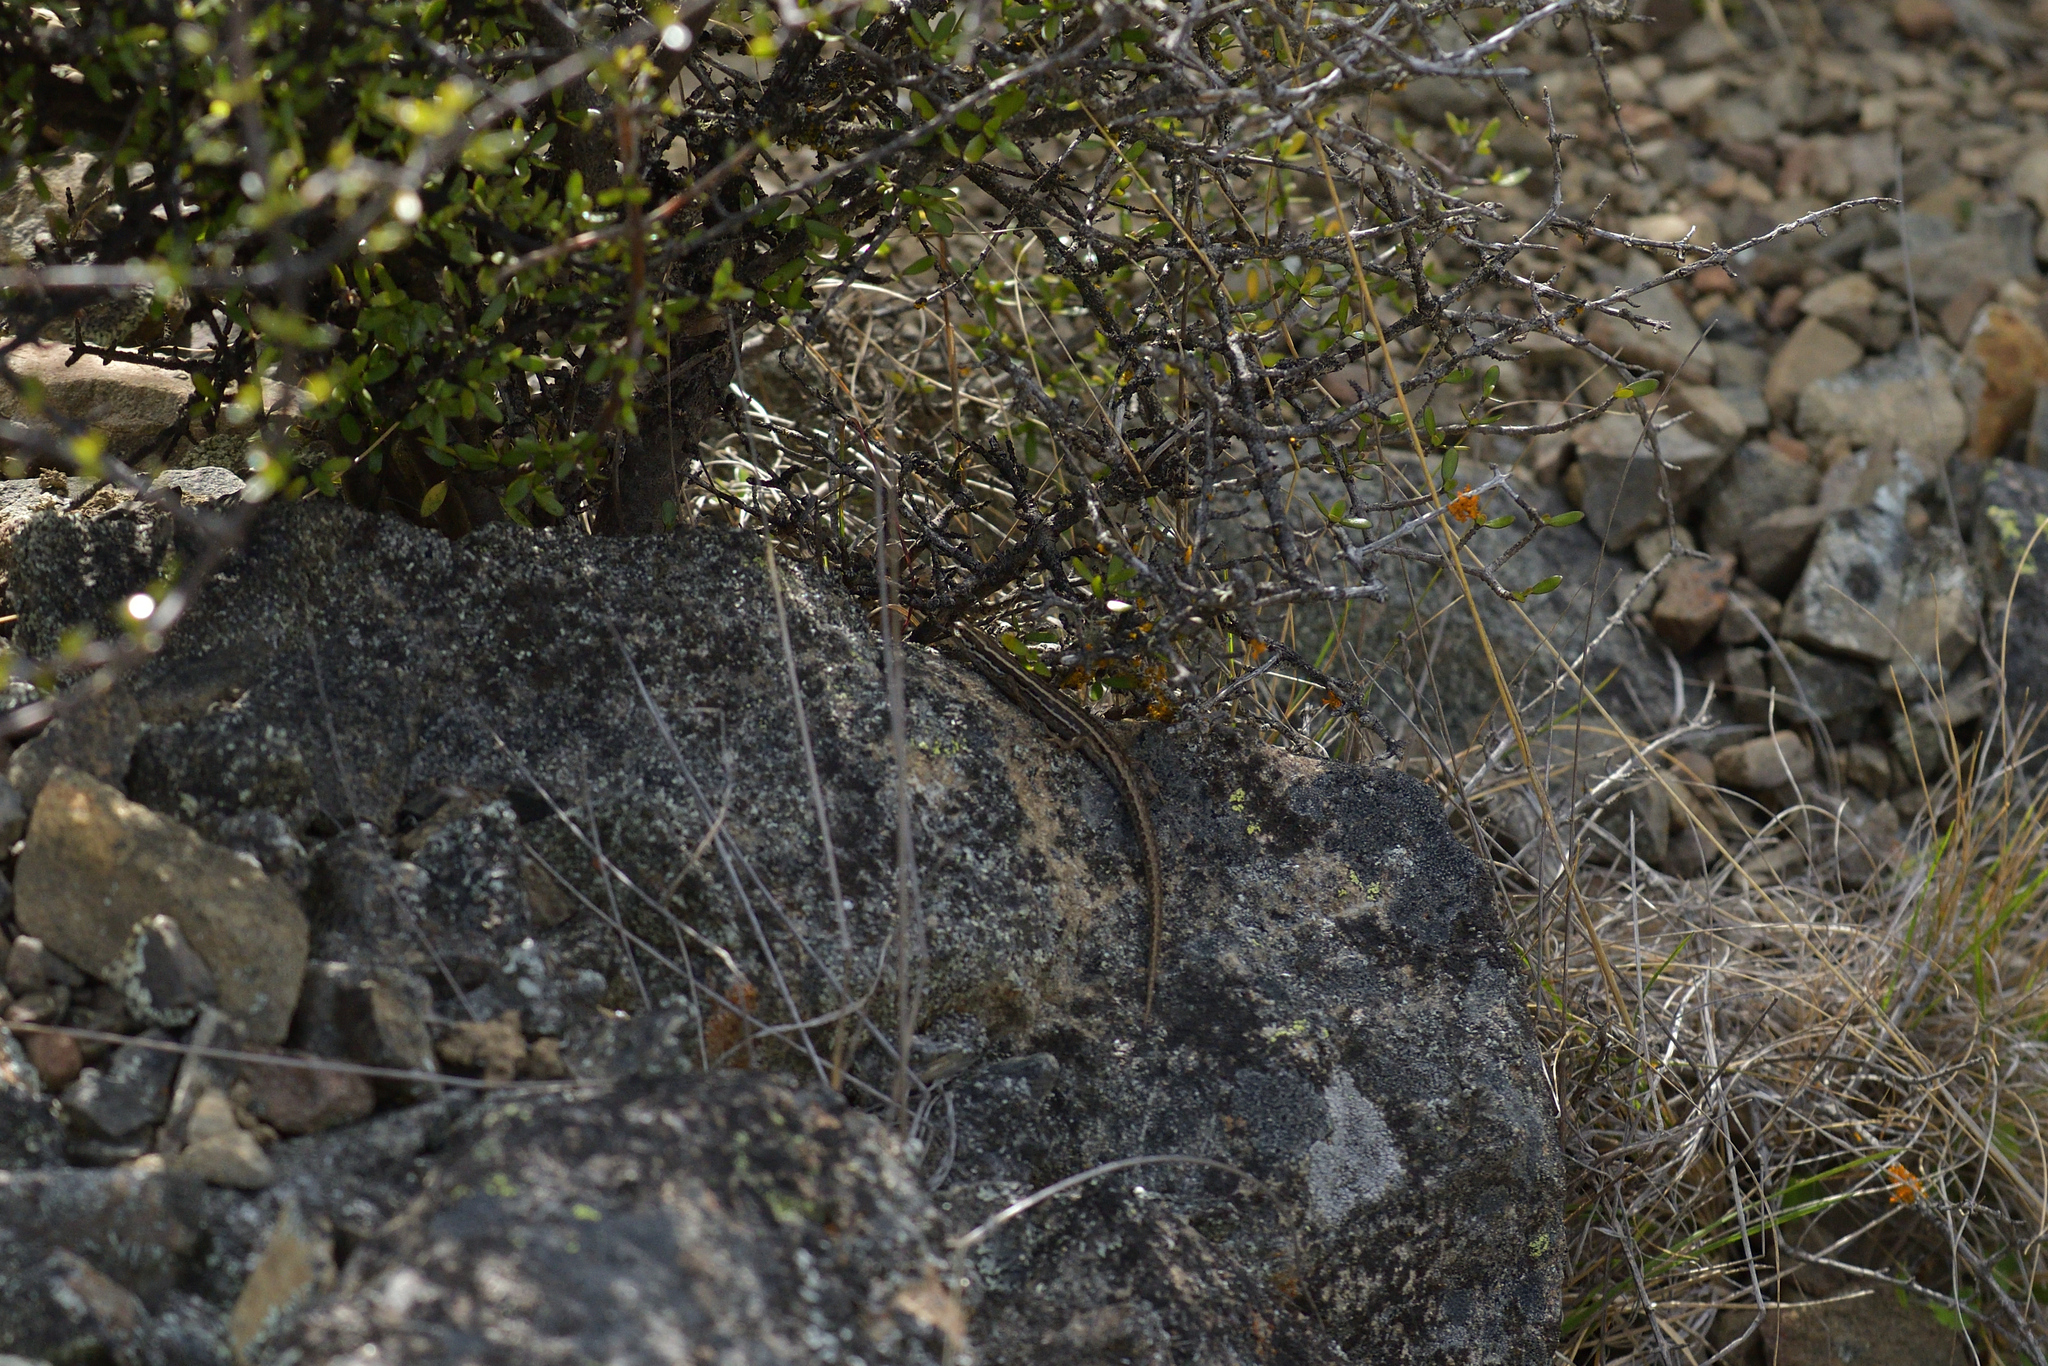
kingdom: Animalia
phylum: Chordata
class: Squamata
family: Scincidae
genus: Oligosoma
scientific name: Oligosoma maccanni
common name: Mccann’s skink
